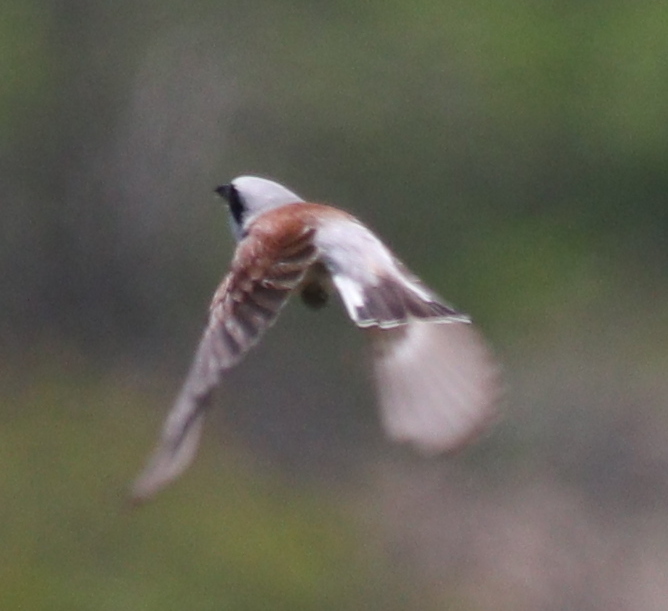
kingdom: Animalia
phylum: Chordata
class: Aves
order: Passeriformes
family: Laniidae
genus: Lanius
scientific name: Lanius collurio
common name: Red-backed shrike
